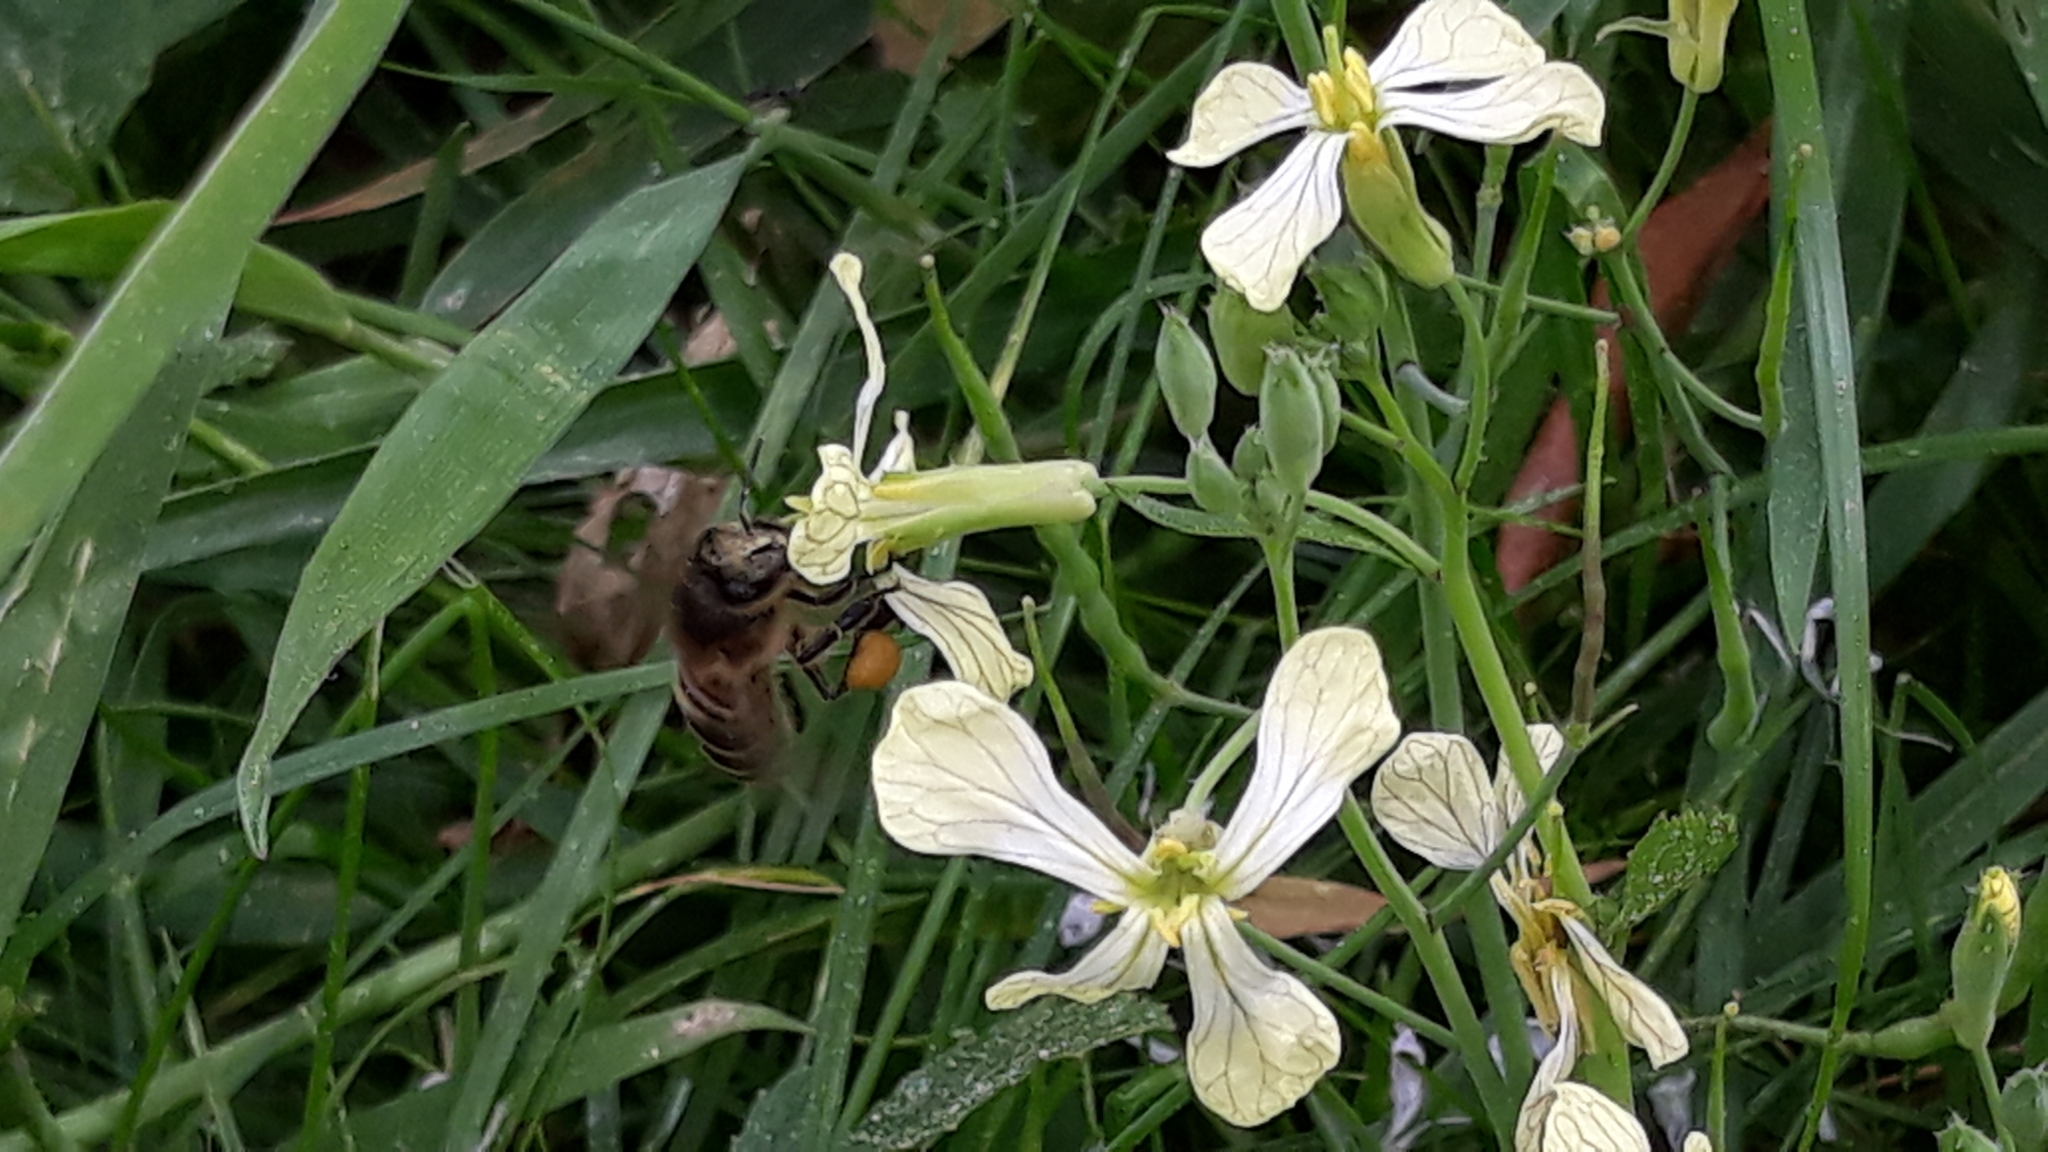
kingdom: Animalia
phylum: Arthropoda
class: Insecta
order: Hymenoptera
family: Apidae
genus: Apis
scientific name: Apis mellifera
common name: Honey bee
